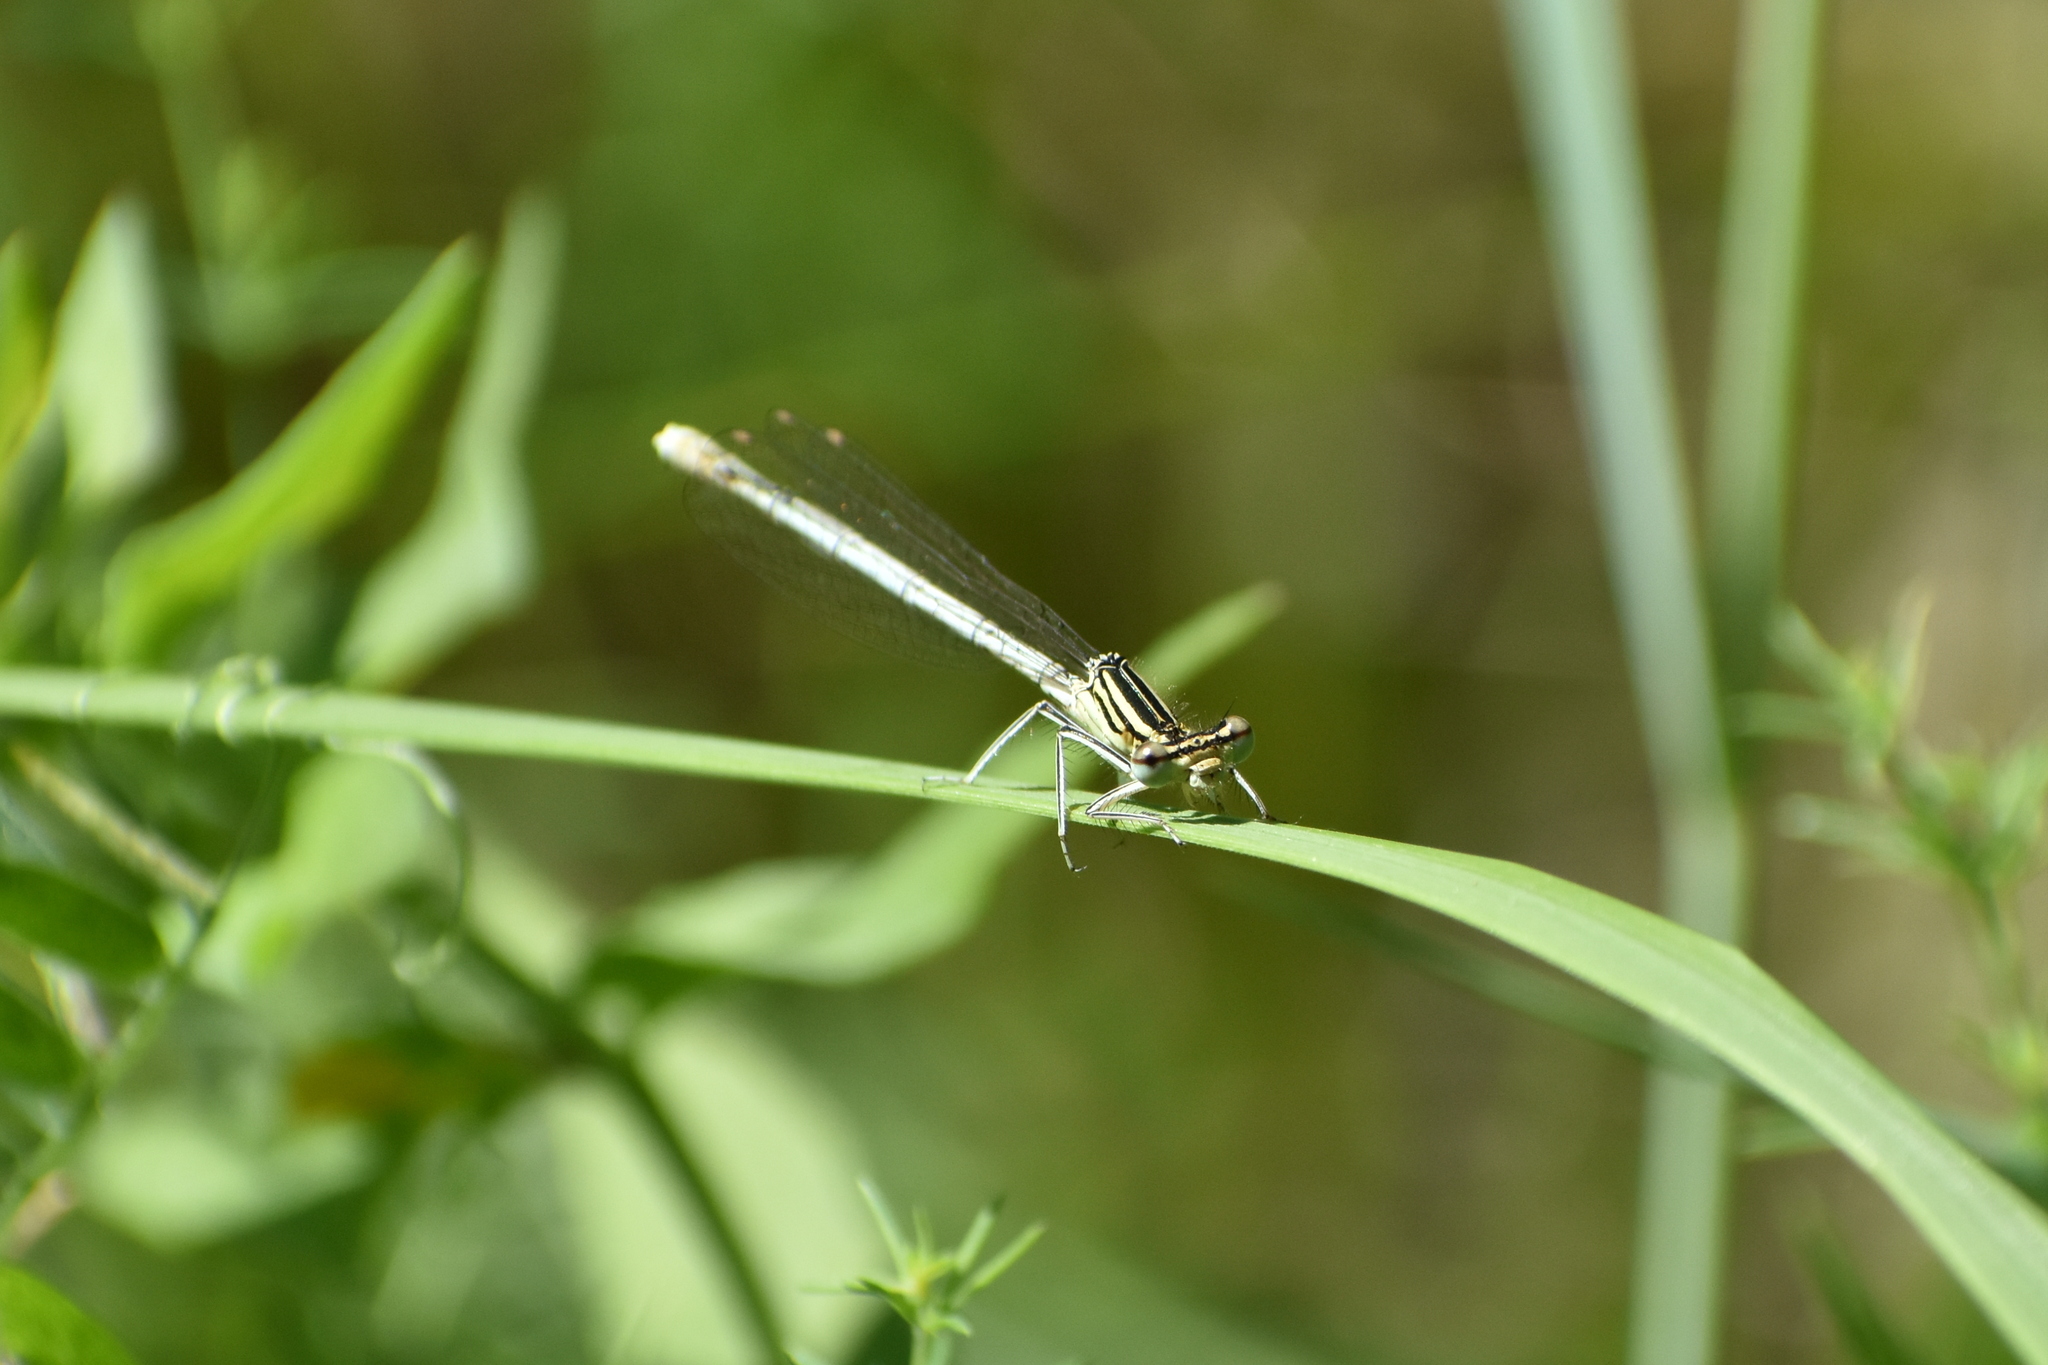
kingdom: Animalia
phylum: Arthropoda
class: Insecta
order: Odonata
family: Platycnemididae
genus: Platycnemis
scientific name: Platycnemis pennipes
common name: White-legged damselfly
